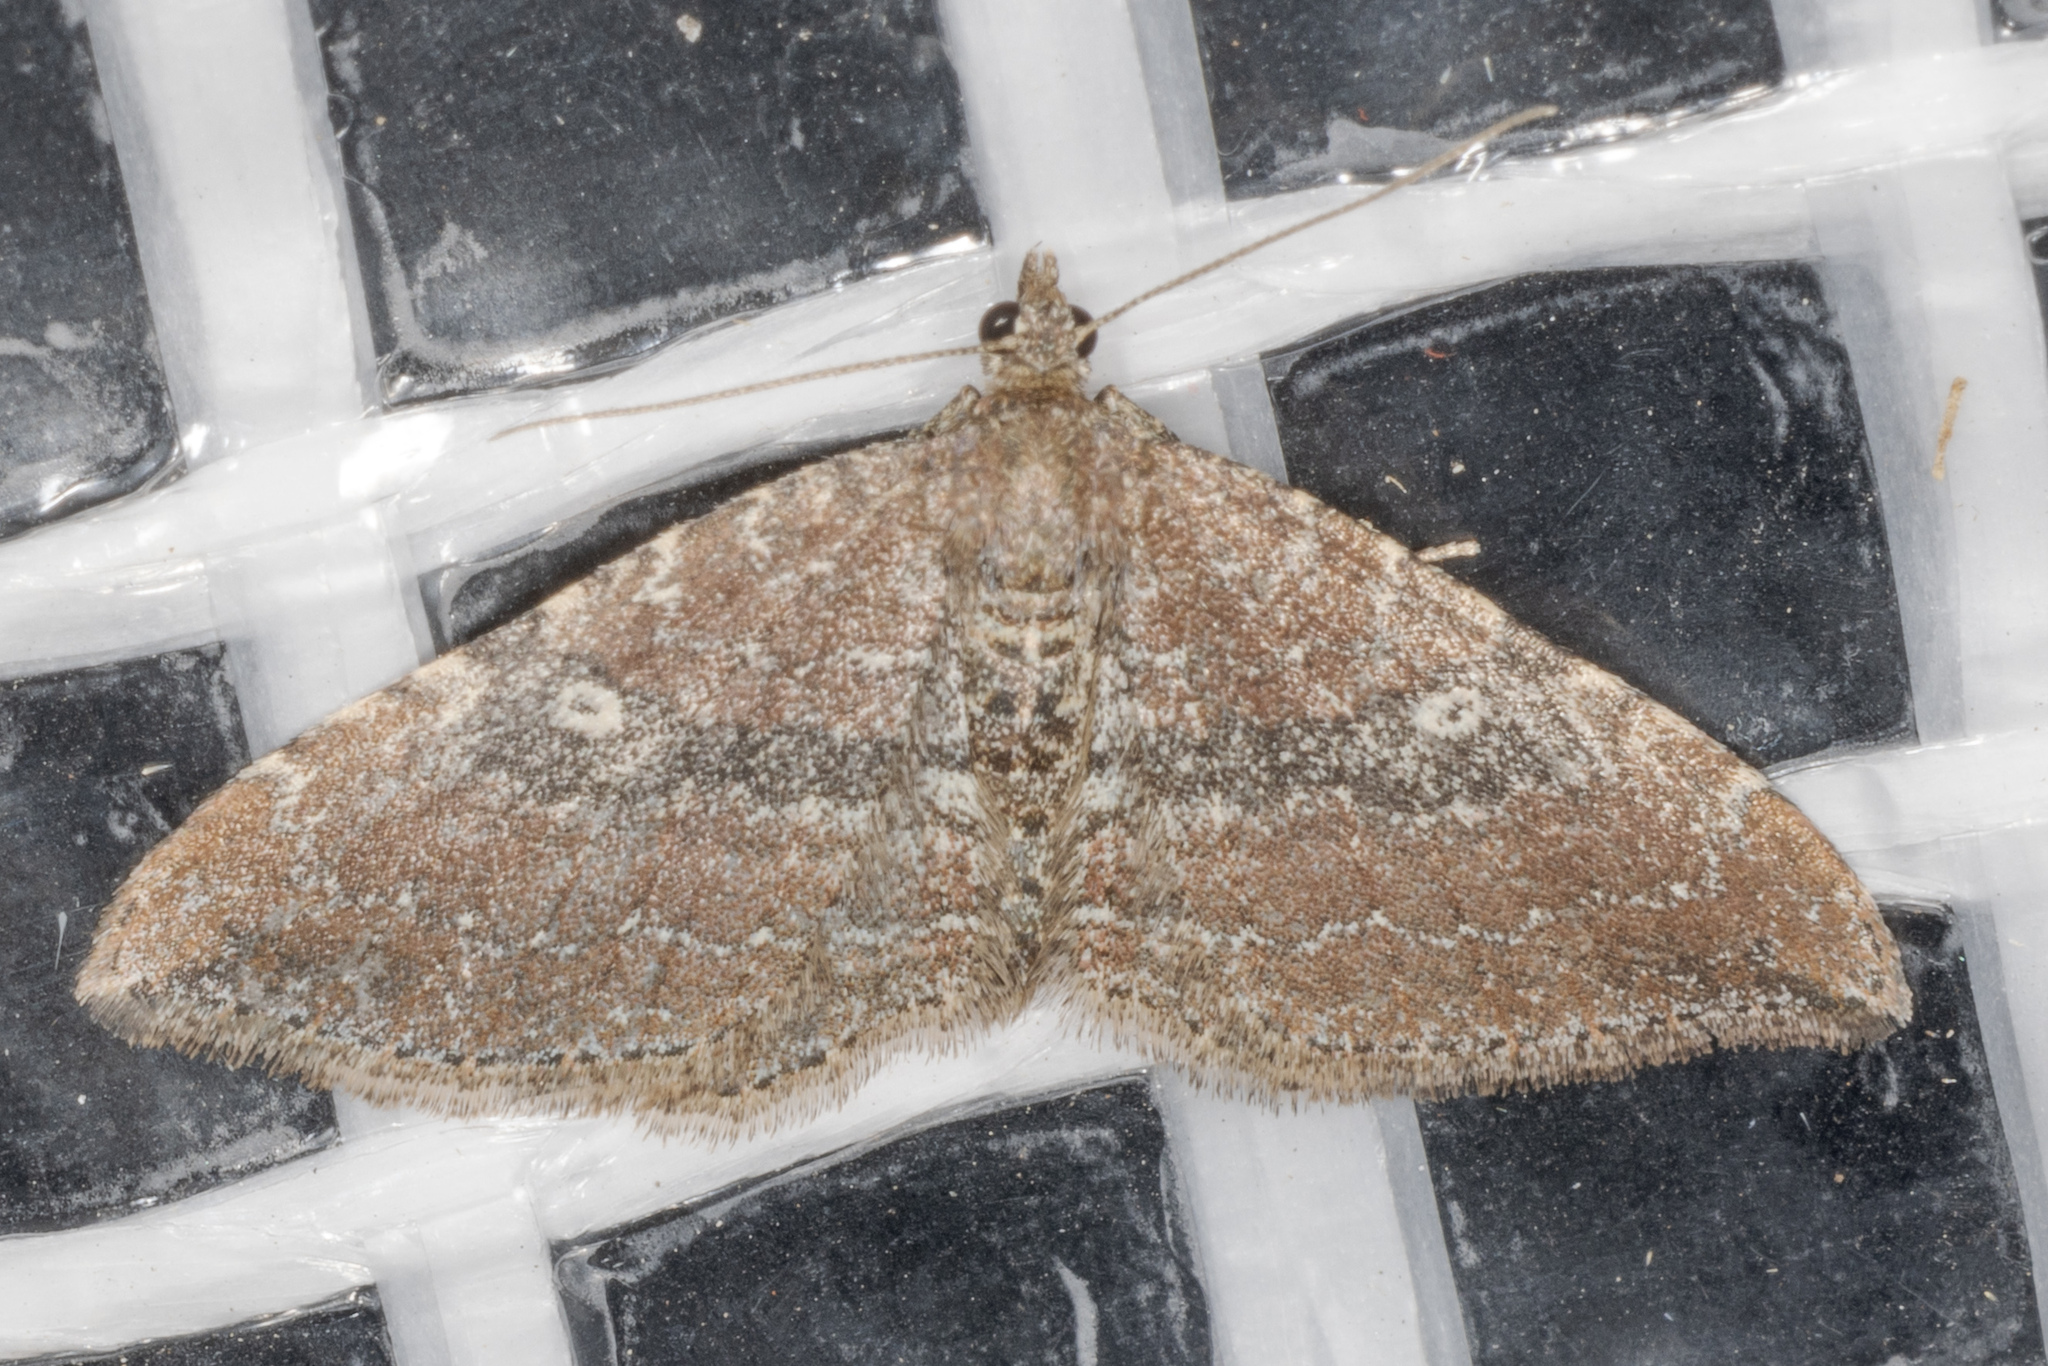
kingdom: Animalia
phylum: Arthropoda
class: Insecta
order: Lepidoptera
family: Geometridae
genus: Orthonama
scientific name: Orthonama obstipata
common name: The gem
